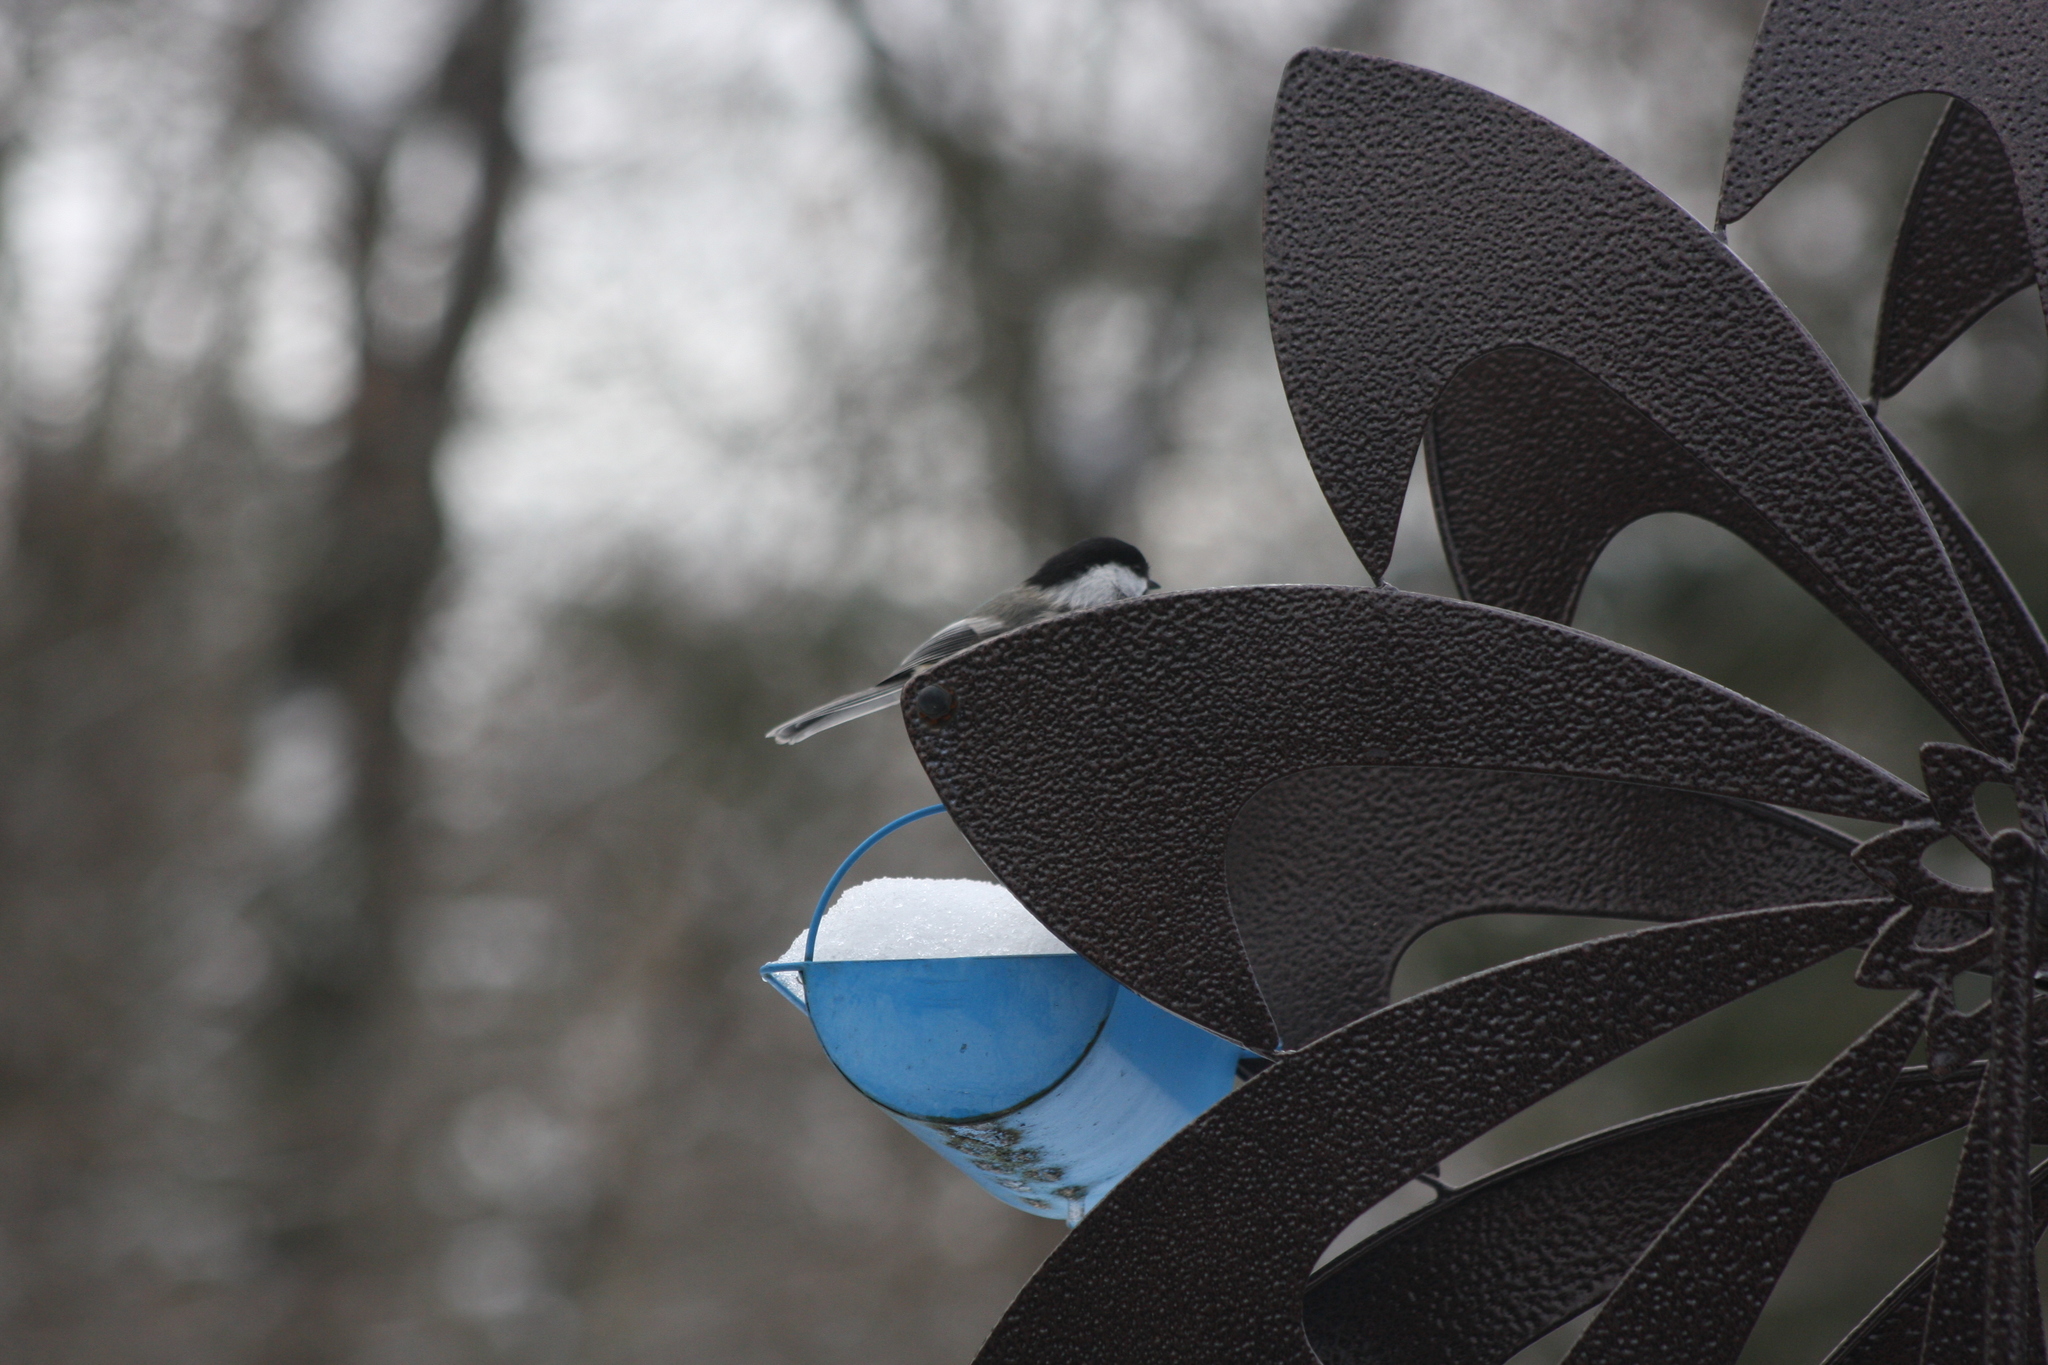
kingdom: Animalia
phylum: Chordata
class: Aves
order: Passeriformes
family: Paridae
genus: Poecile
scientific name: Poecile atricapillus
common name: Black-capped chickadee
